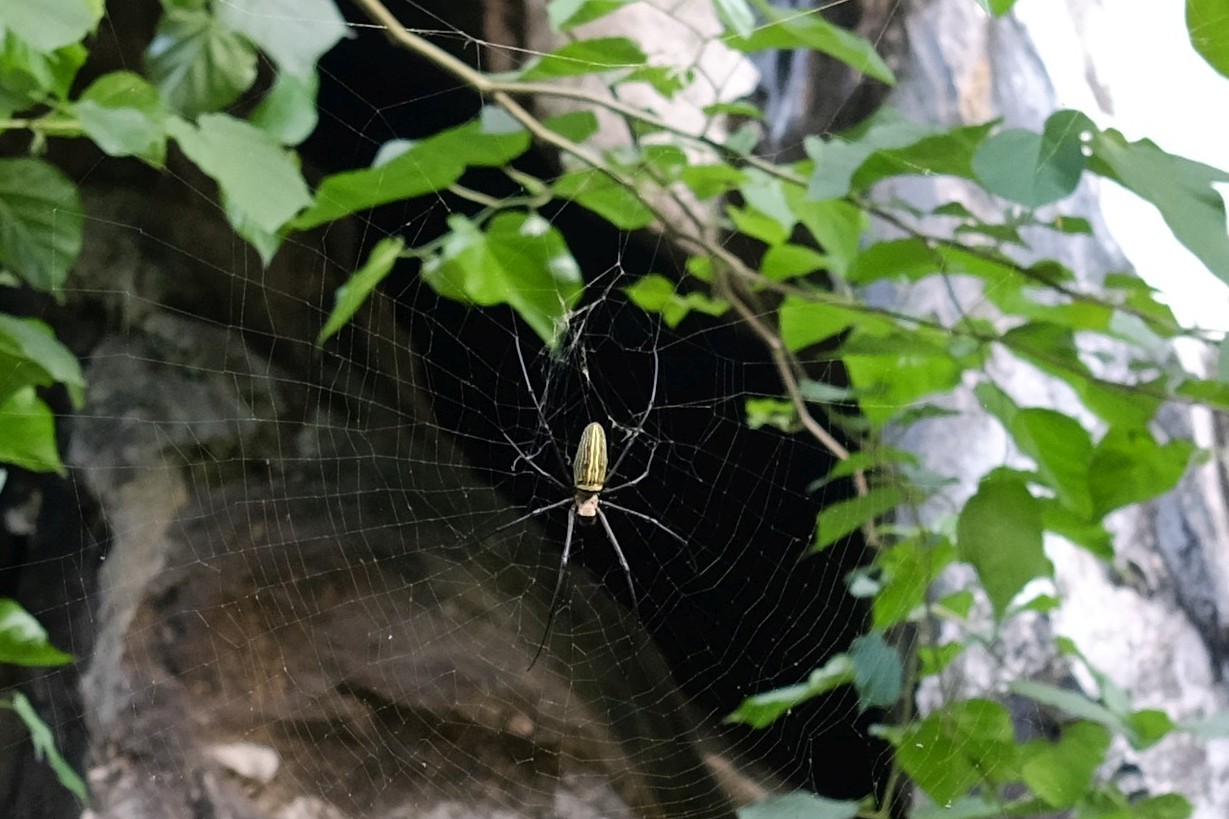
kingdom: Animalia
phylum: Arthropoda
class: Arachnida
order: Araneae
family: Araneidae
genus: Nephila
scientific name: Nephila pilipes
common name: Giant golden orb weaver
